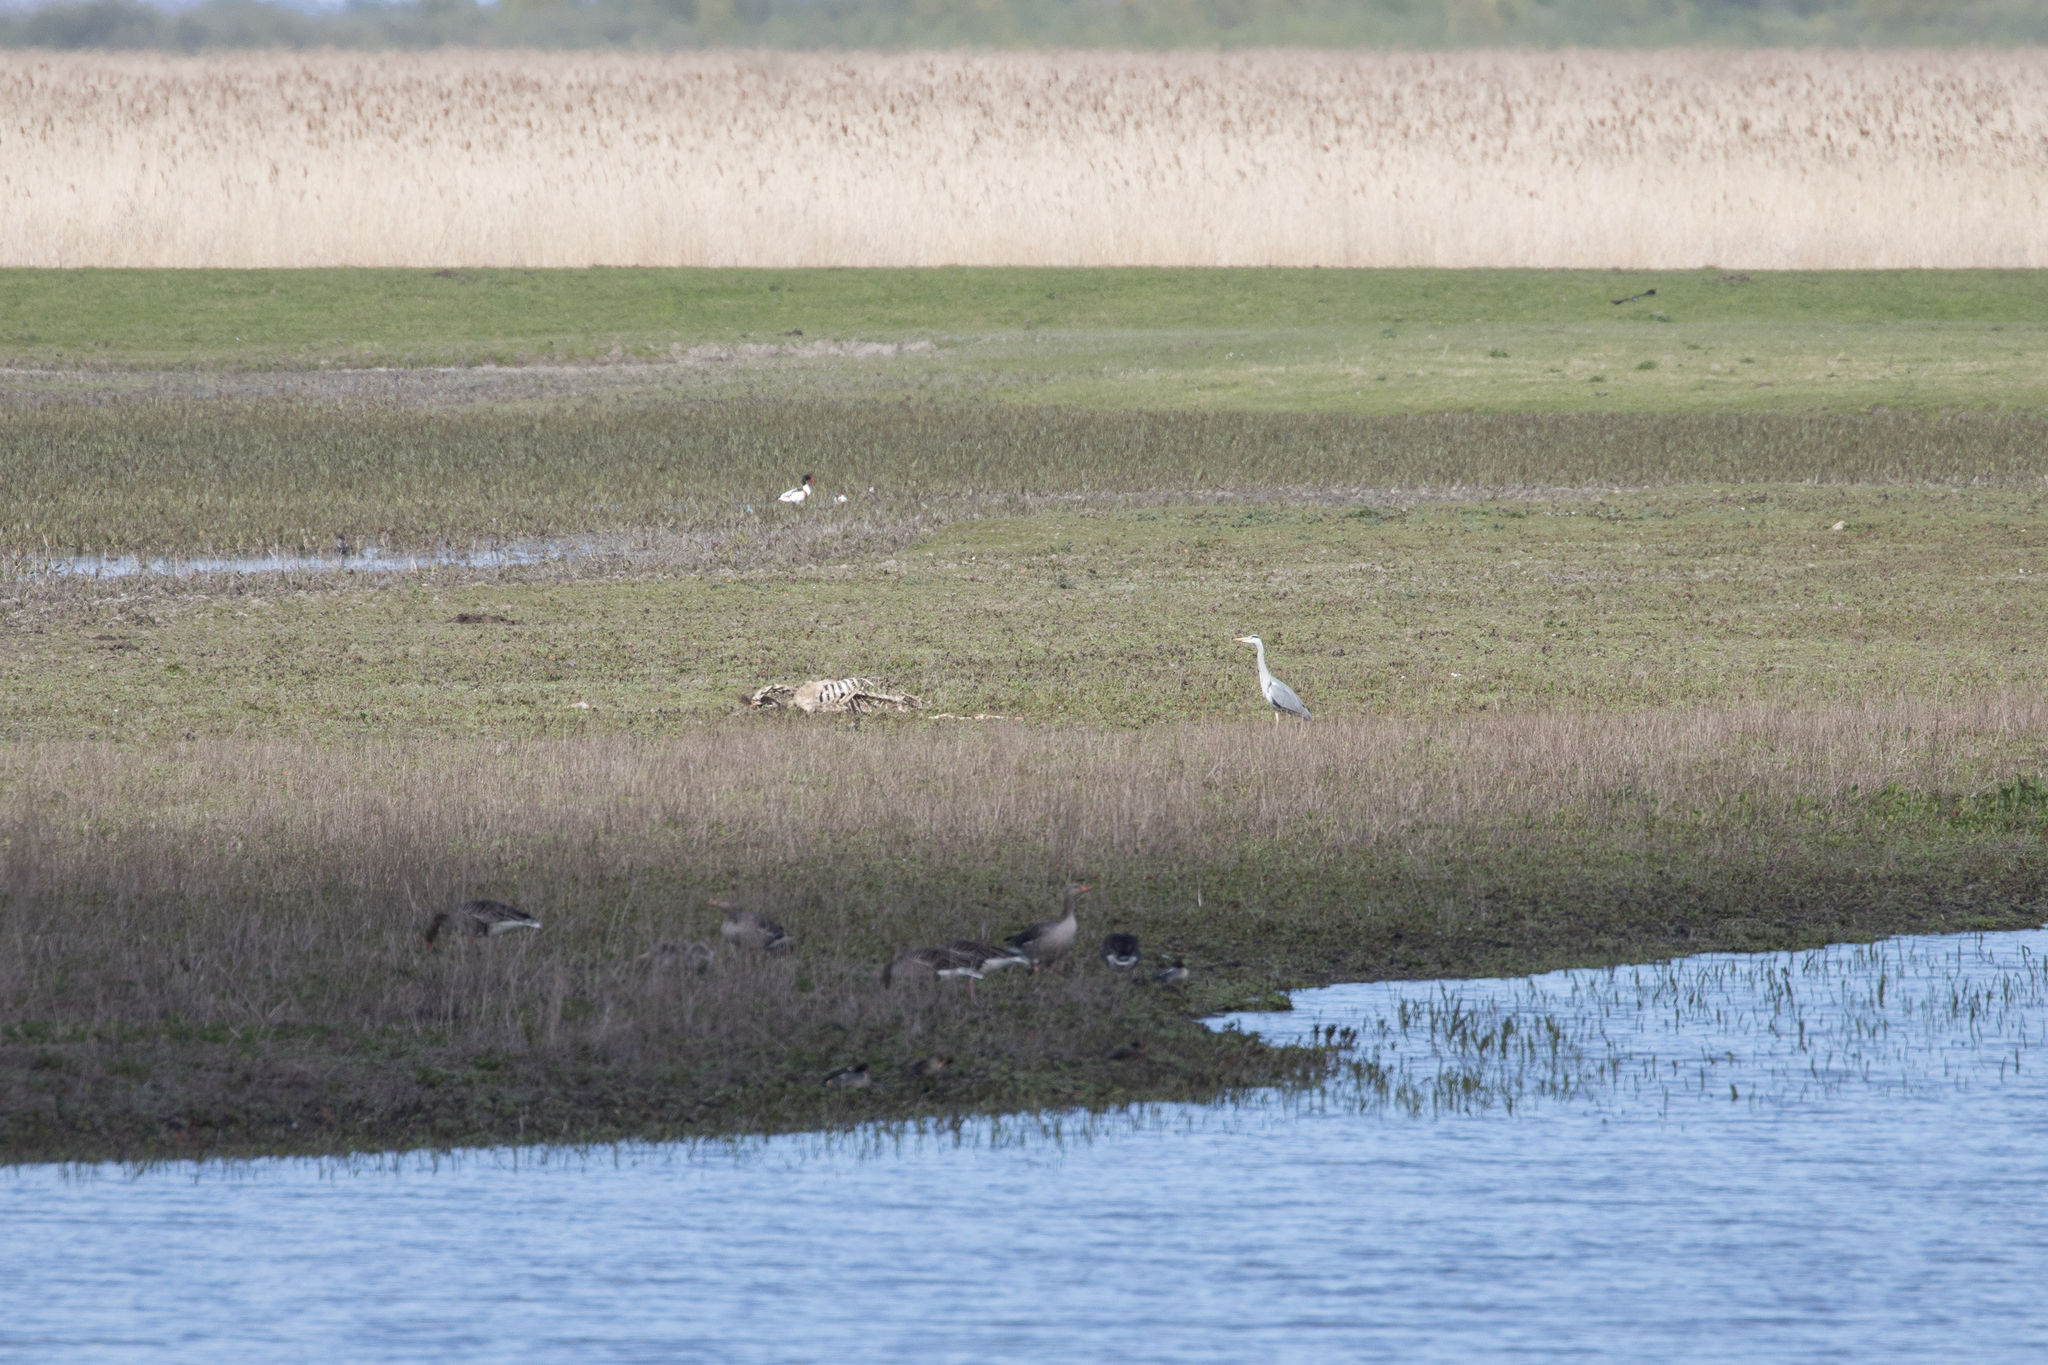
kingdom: Animalia
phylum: Chordata
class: Aves
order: Pelecaniformes
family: Ardeidae
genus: Ardea
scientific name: Ardea cinerea
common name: Grey heron
